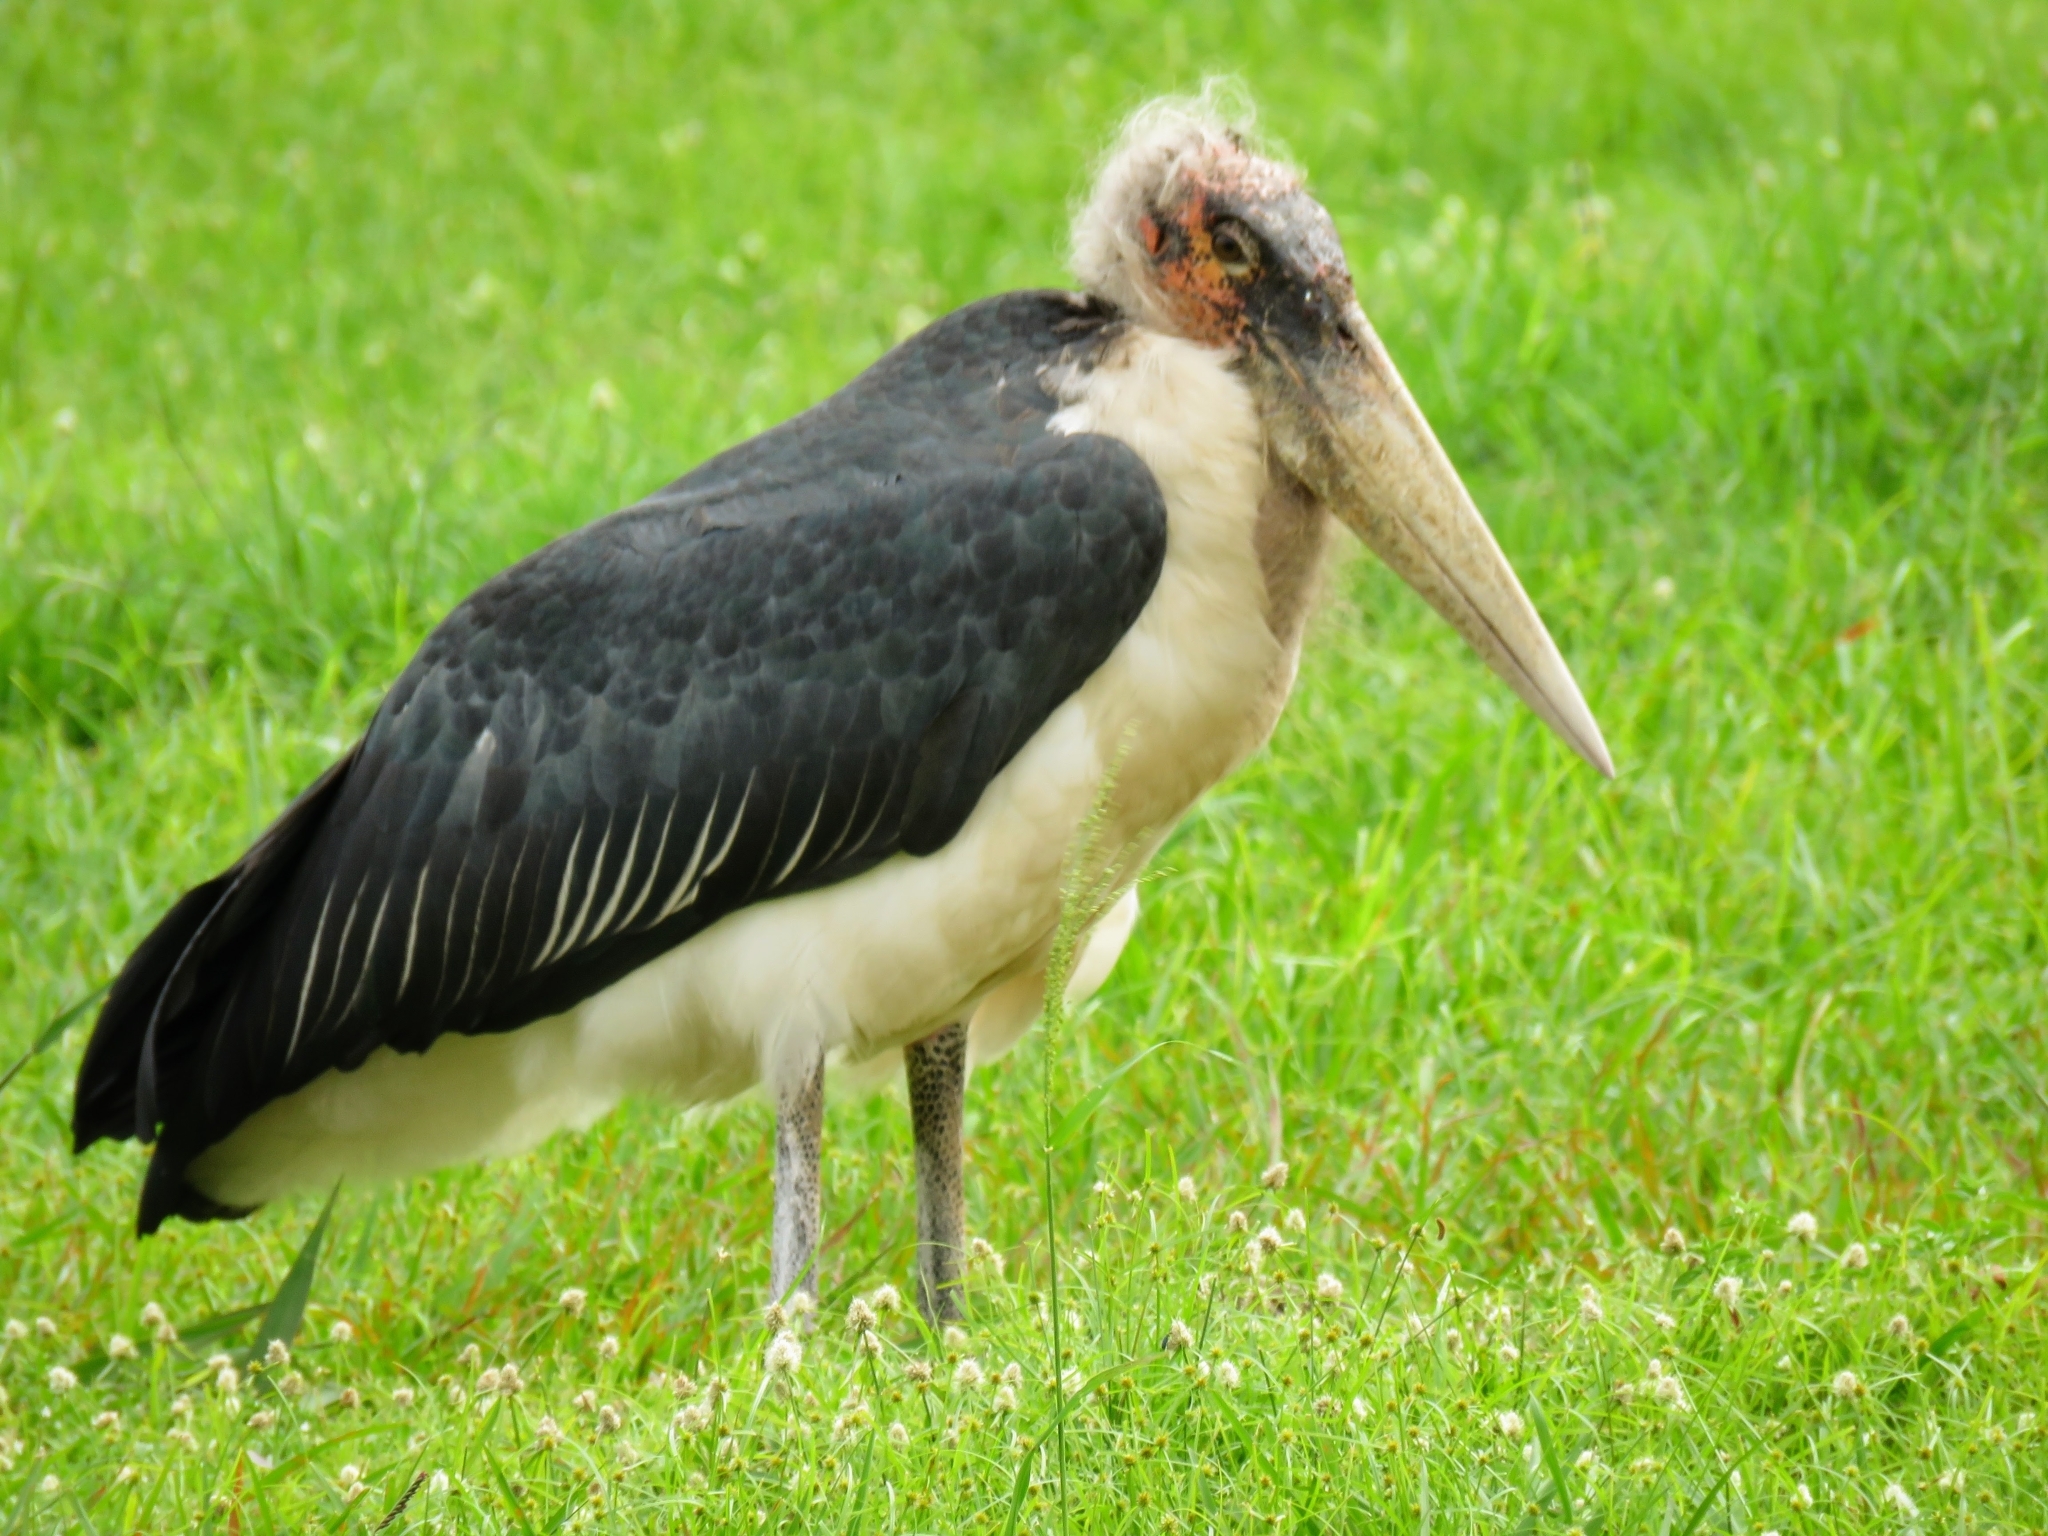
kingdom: Animalia
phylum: Chordata
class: Aves
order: Ciconiiformes
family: Ciconiidae
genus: Leptoptilos
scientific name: Leptoptilos crumenifer
